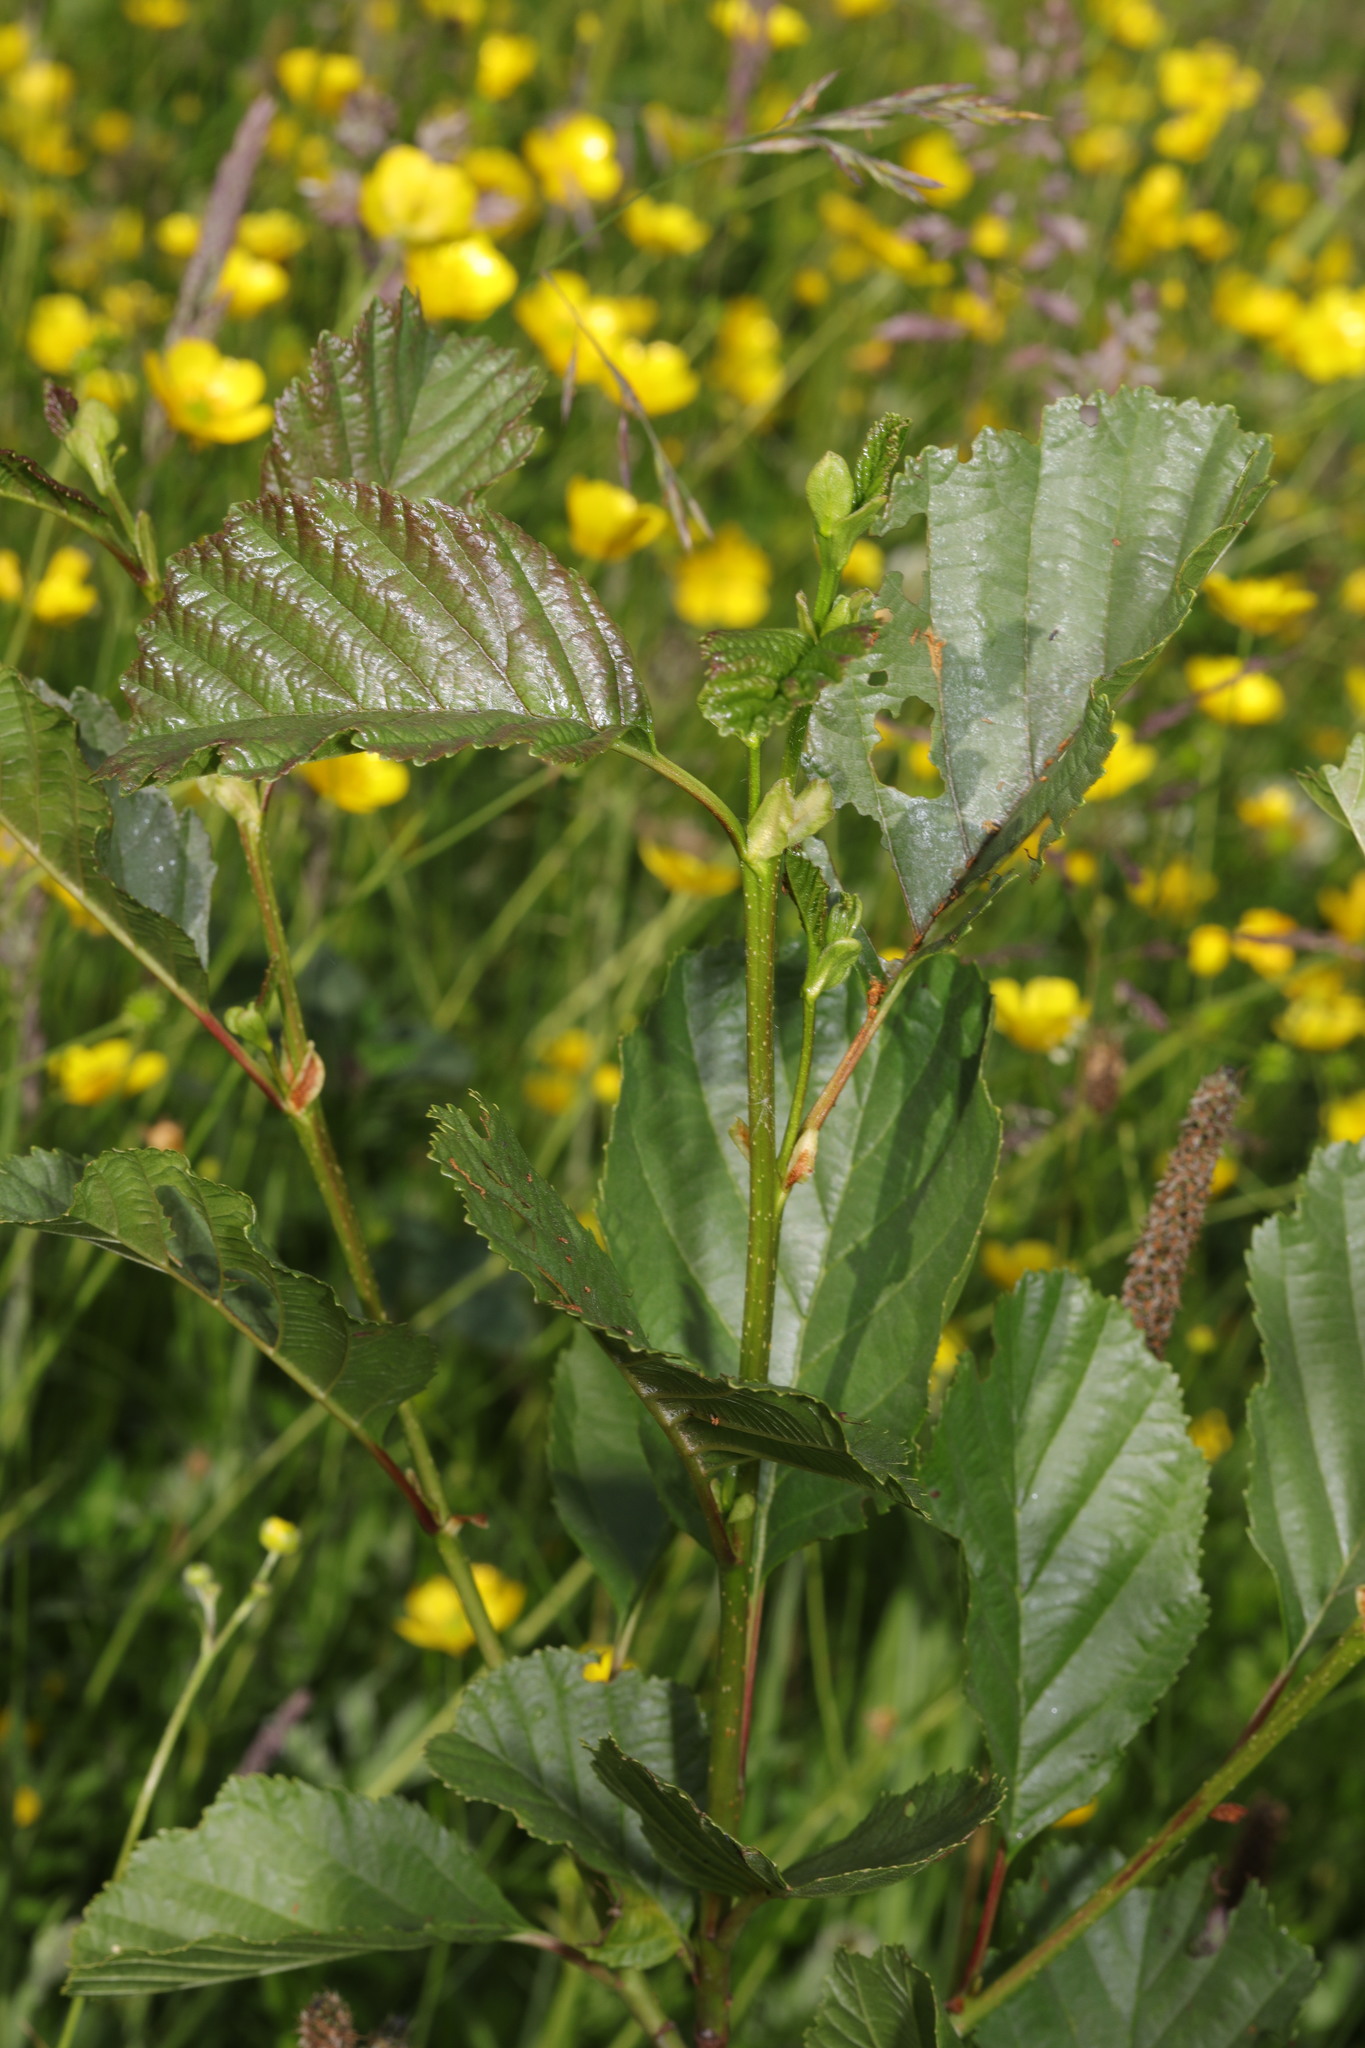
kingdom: Plantae
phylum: Tracheophyta
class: Magnoliopsida
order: Fagales
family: Betulaceae
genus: Alnus
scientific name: Alnus glutinosa
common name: Black alder
